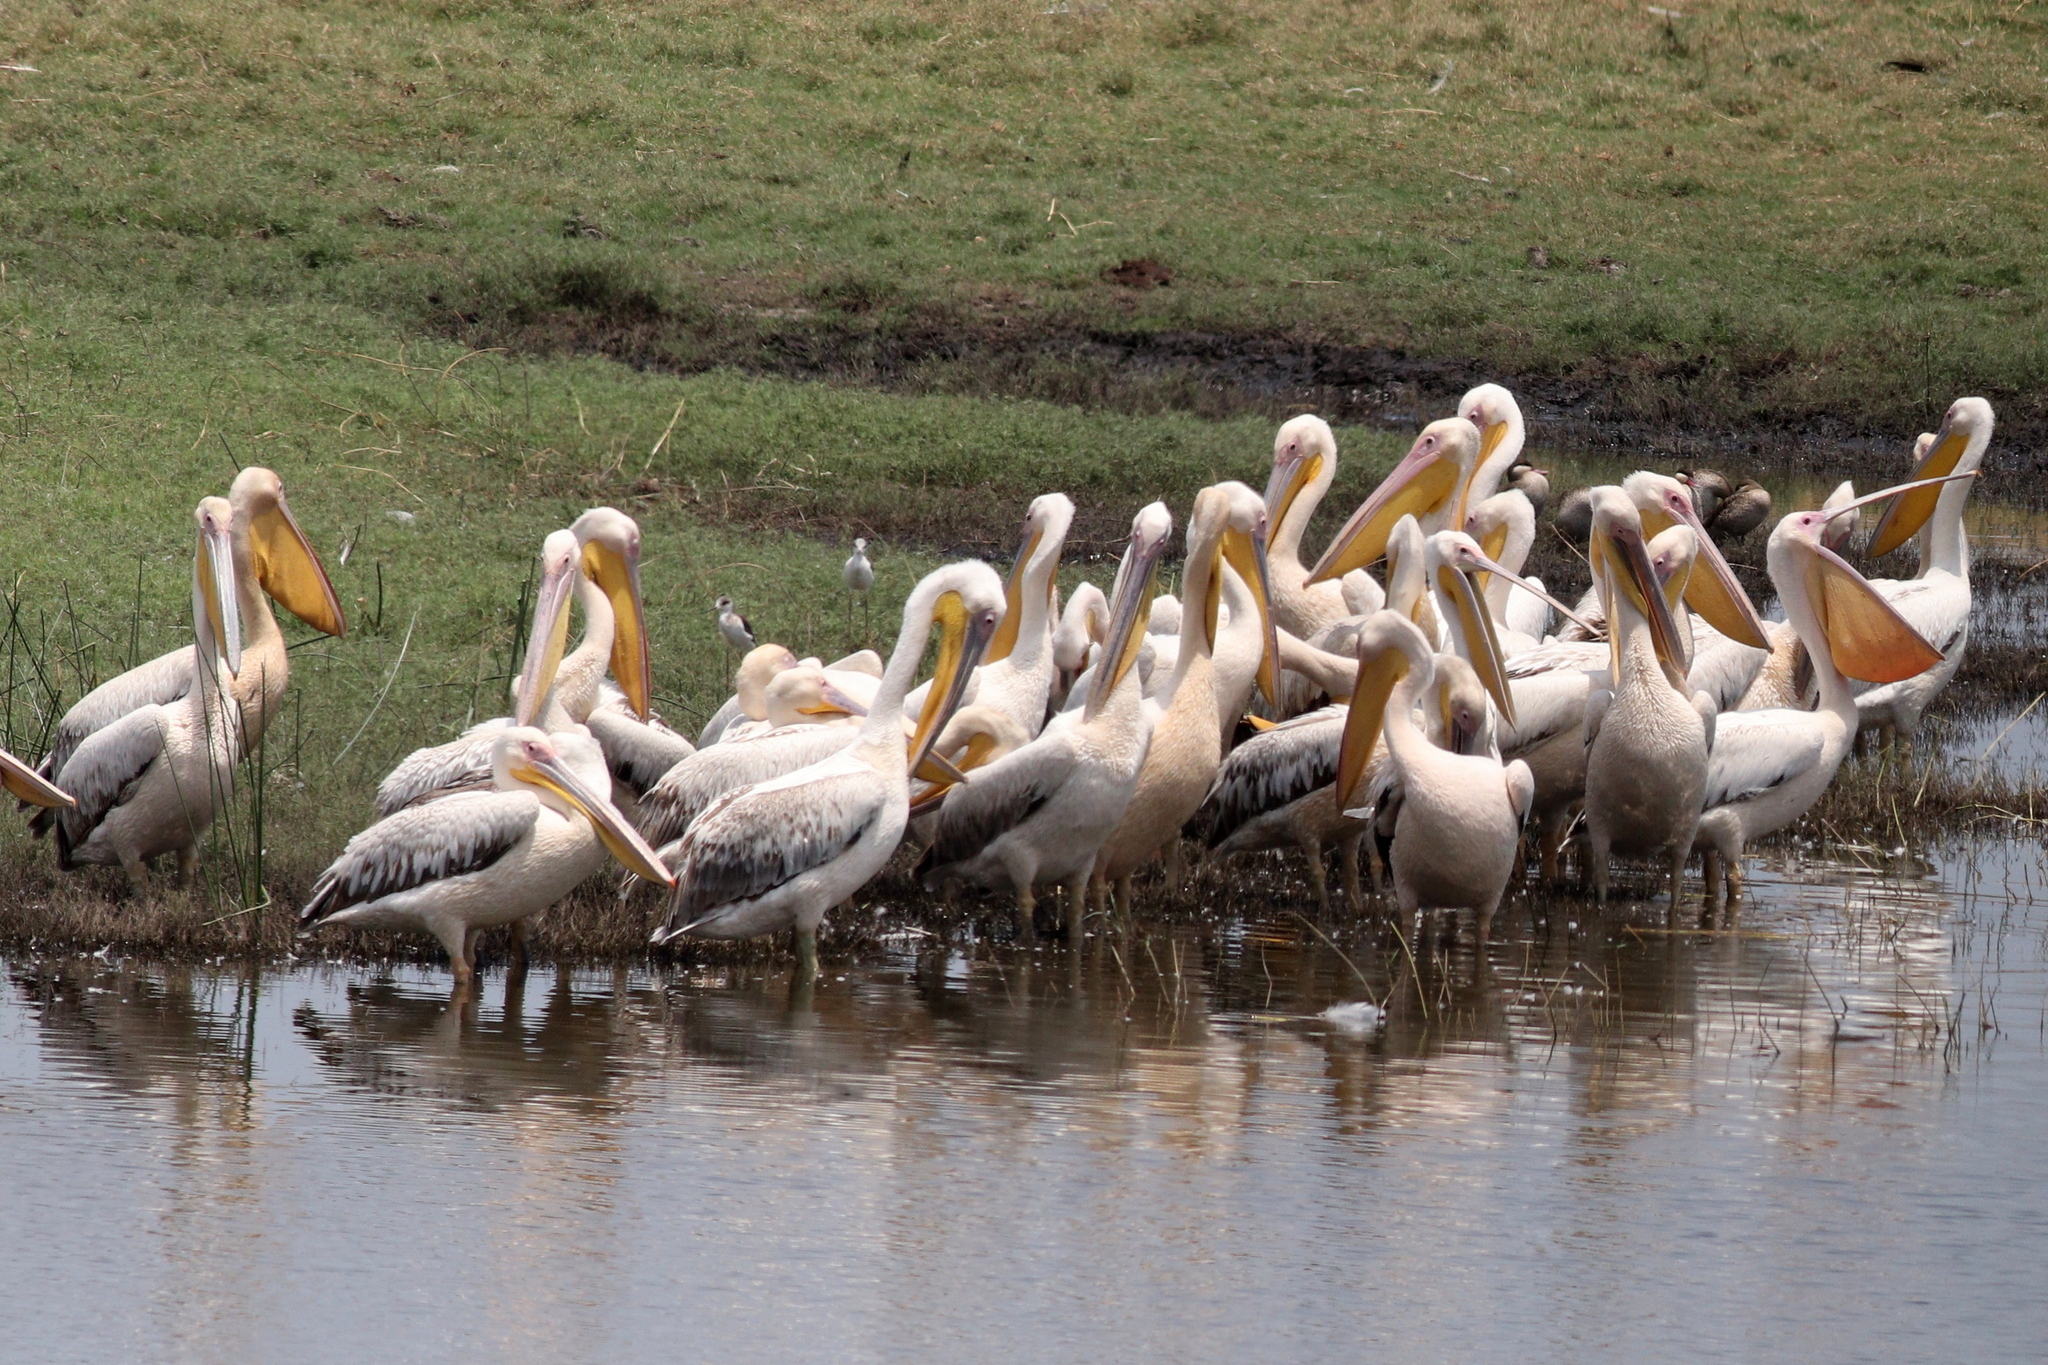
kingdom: Animalia
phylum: Chordata
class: Aves
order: Pelecaniformes
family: Pelecanidae
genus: Pelecanus
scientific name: Pelecanus onocrotalus
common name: Great white pelican
